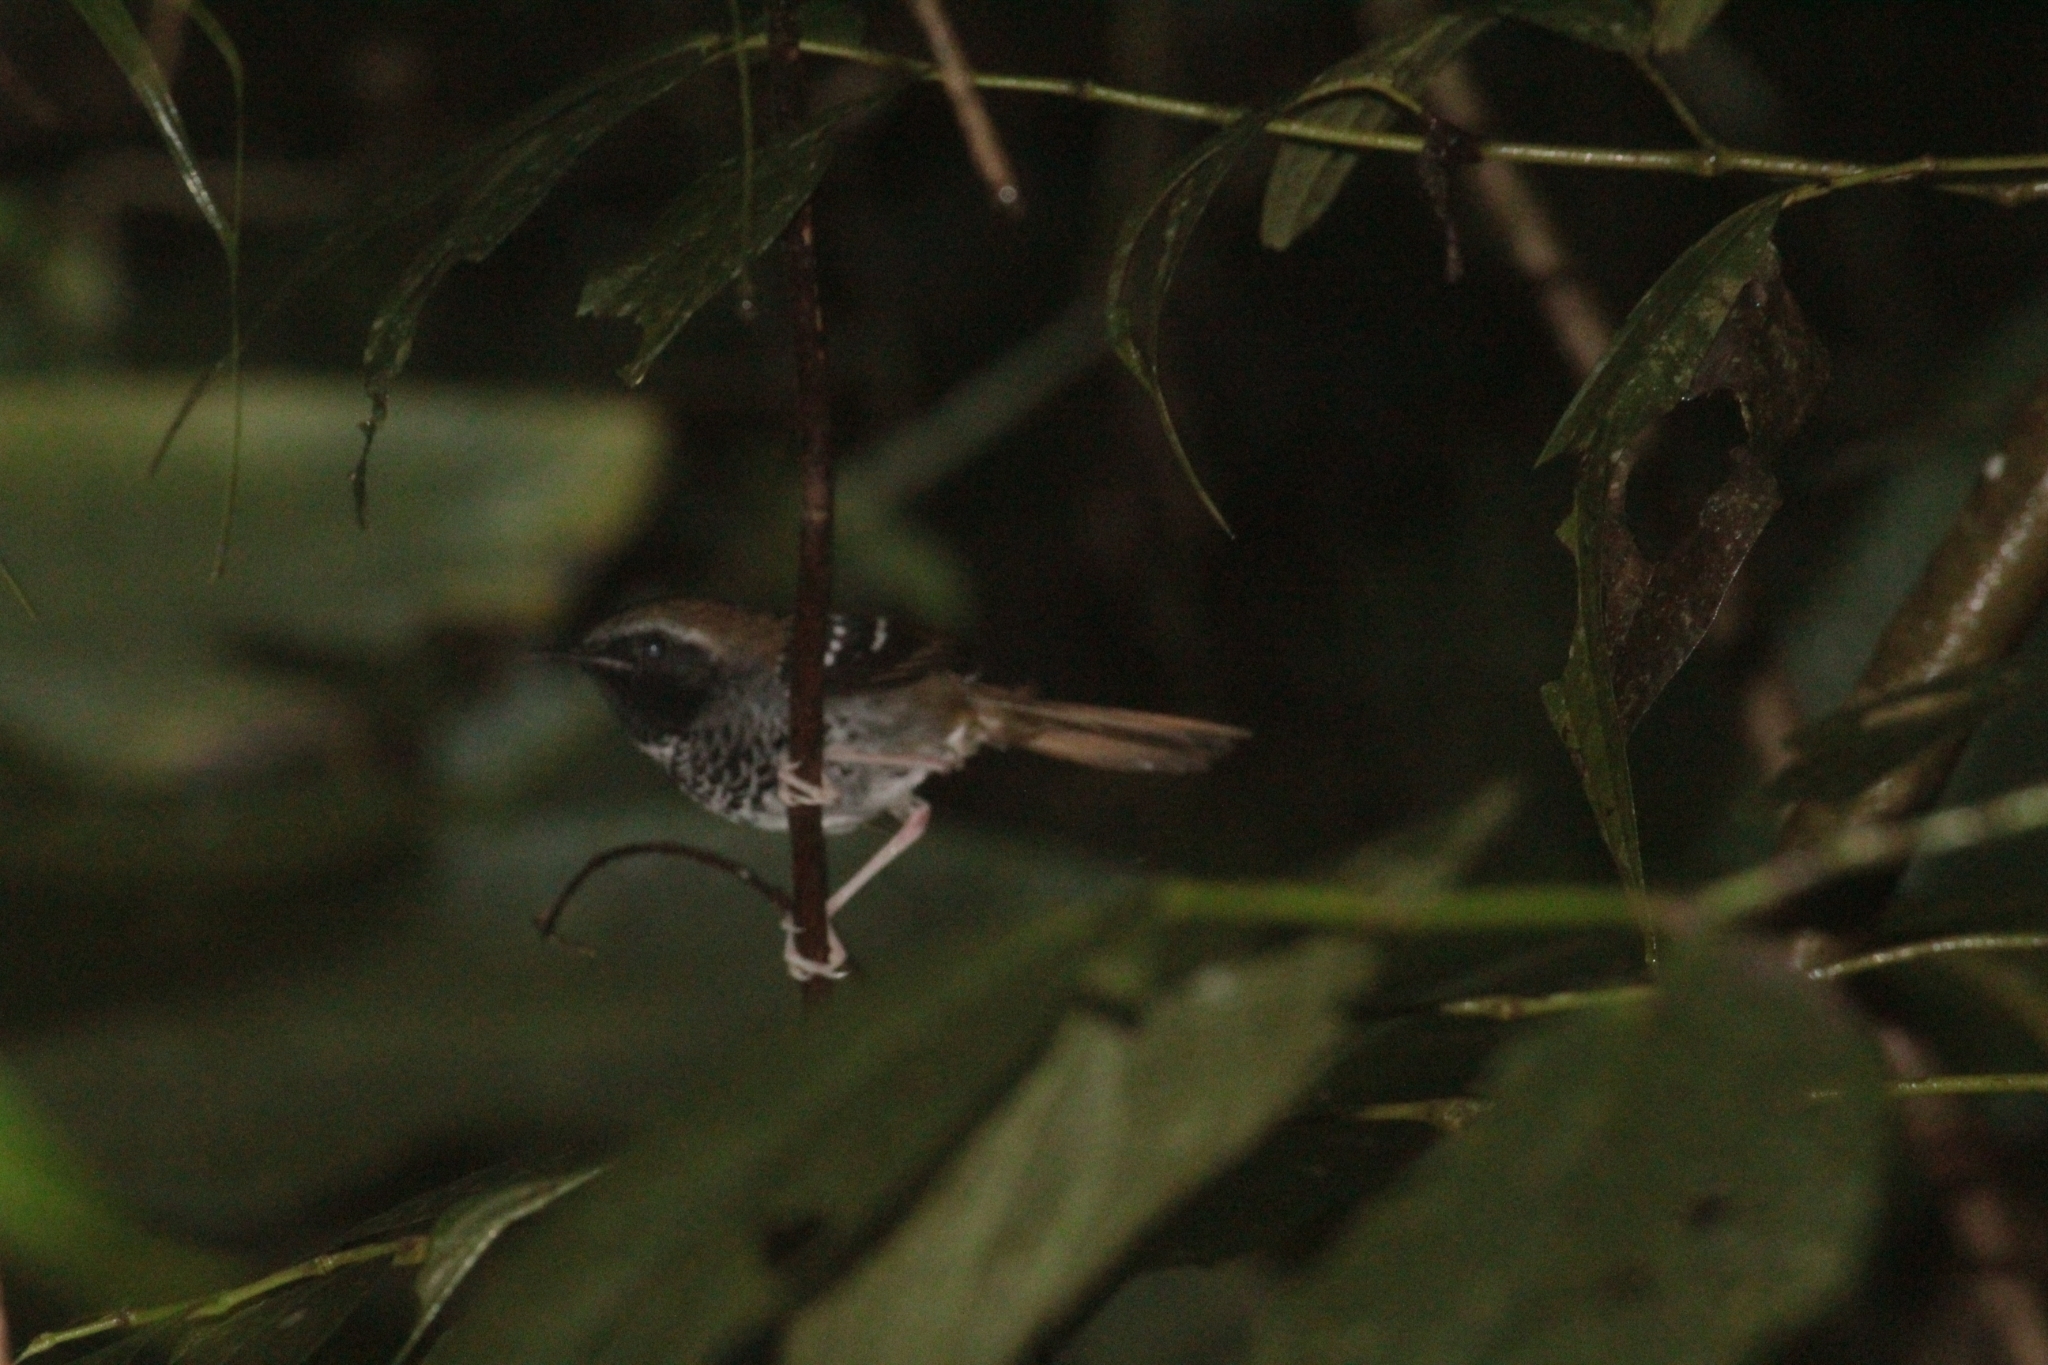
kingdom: Animalia
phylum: Chordata
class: Aves
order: Passeriformes
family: Thamnophilidae
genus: Myrmeciza
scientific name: Myrmeciza squamosa
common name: Squamate antbird
